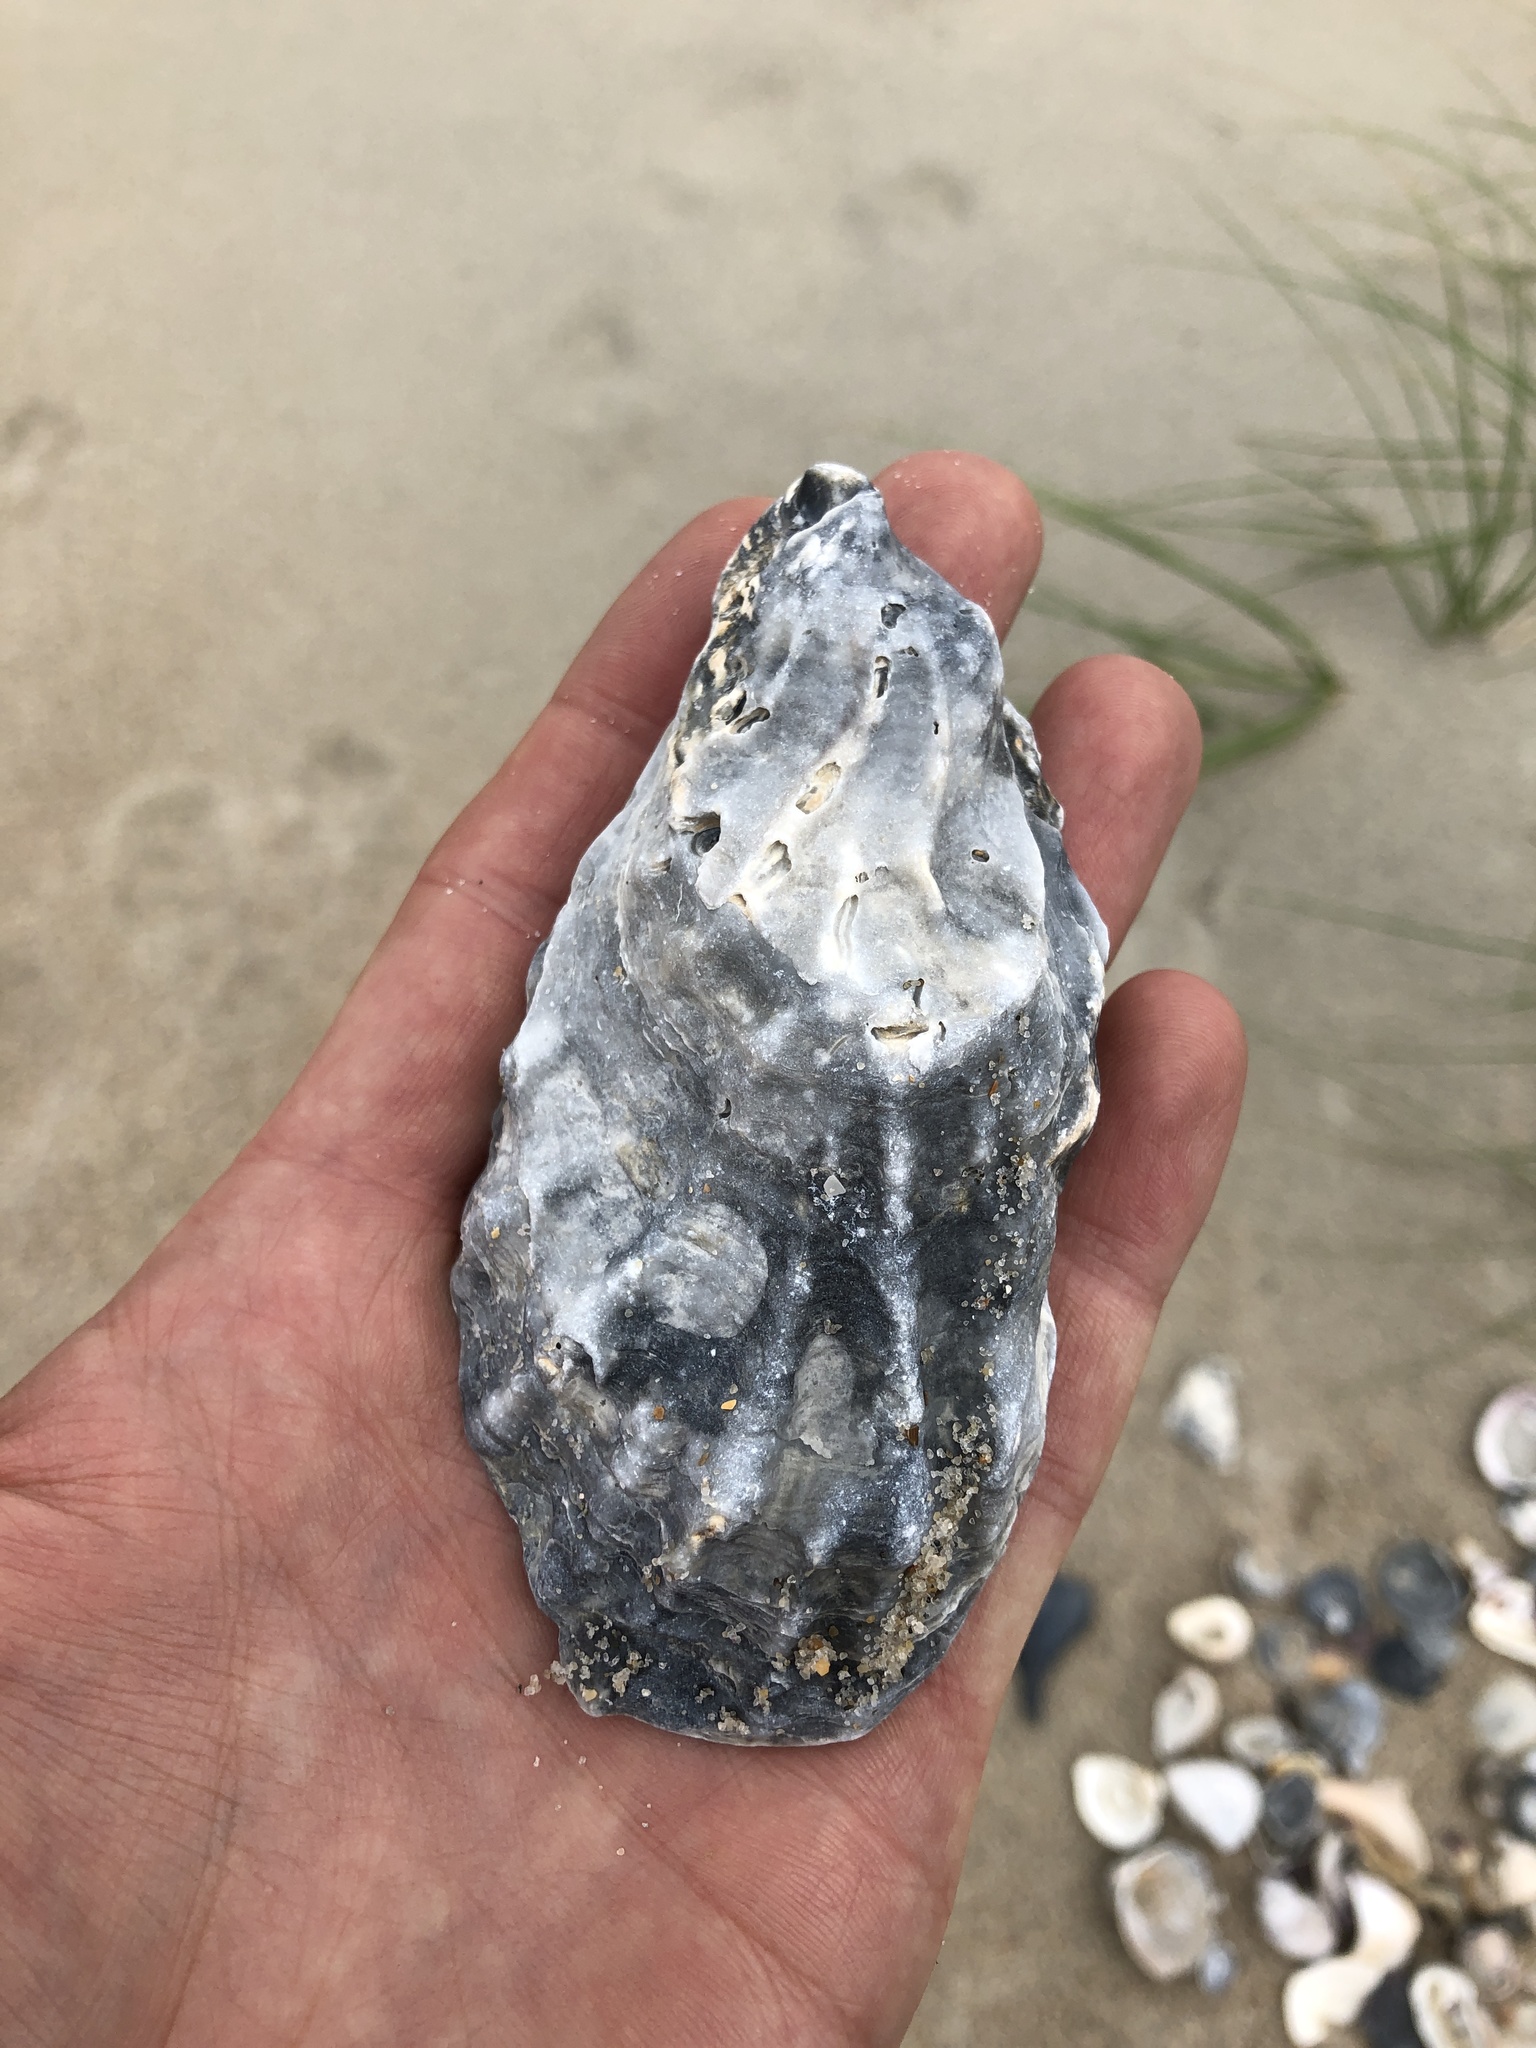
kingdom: Animalia
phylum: Mollusca
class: Bivalvia
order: Ostreida
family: Ostreidae
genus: Crassostrea
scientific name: Crassostrea virginica
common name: American oyster
